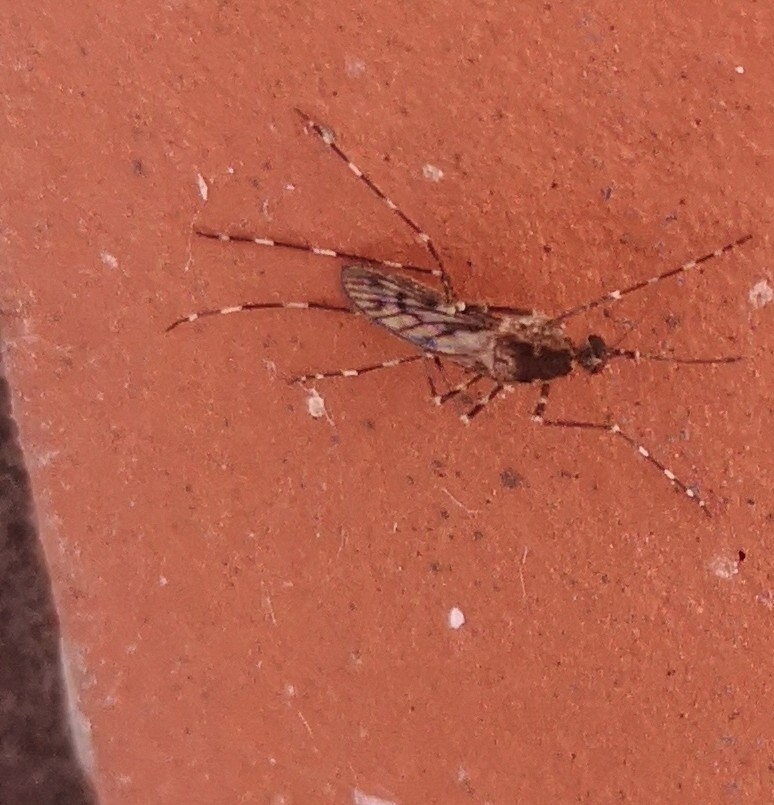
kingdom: Animalia
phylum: Arthropoda
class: Insecta
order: Diptera
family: Culicidae
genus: Culiseta
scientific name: Culiseta annulata
